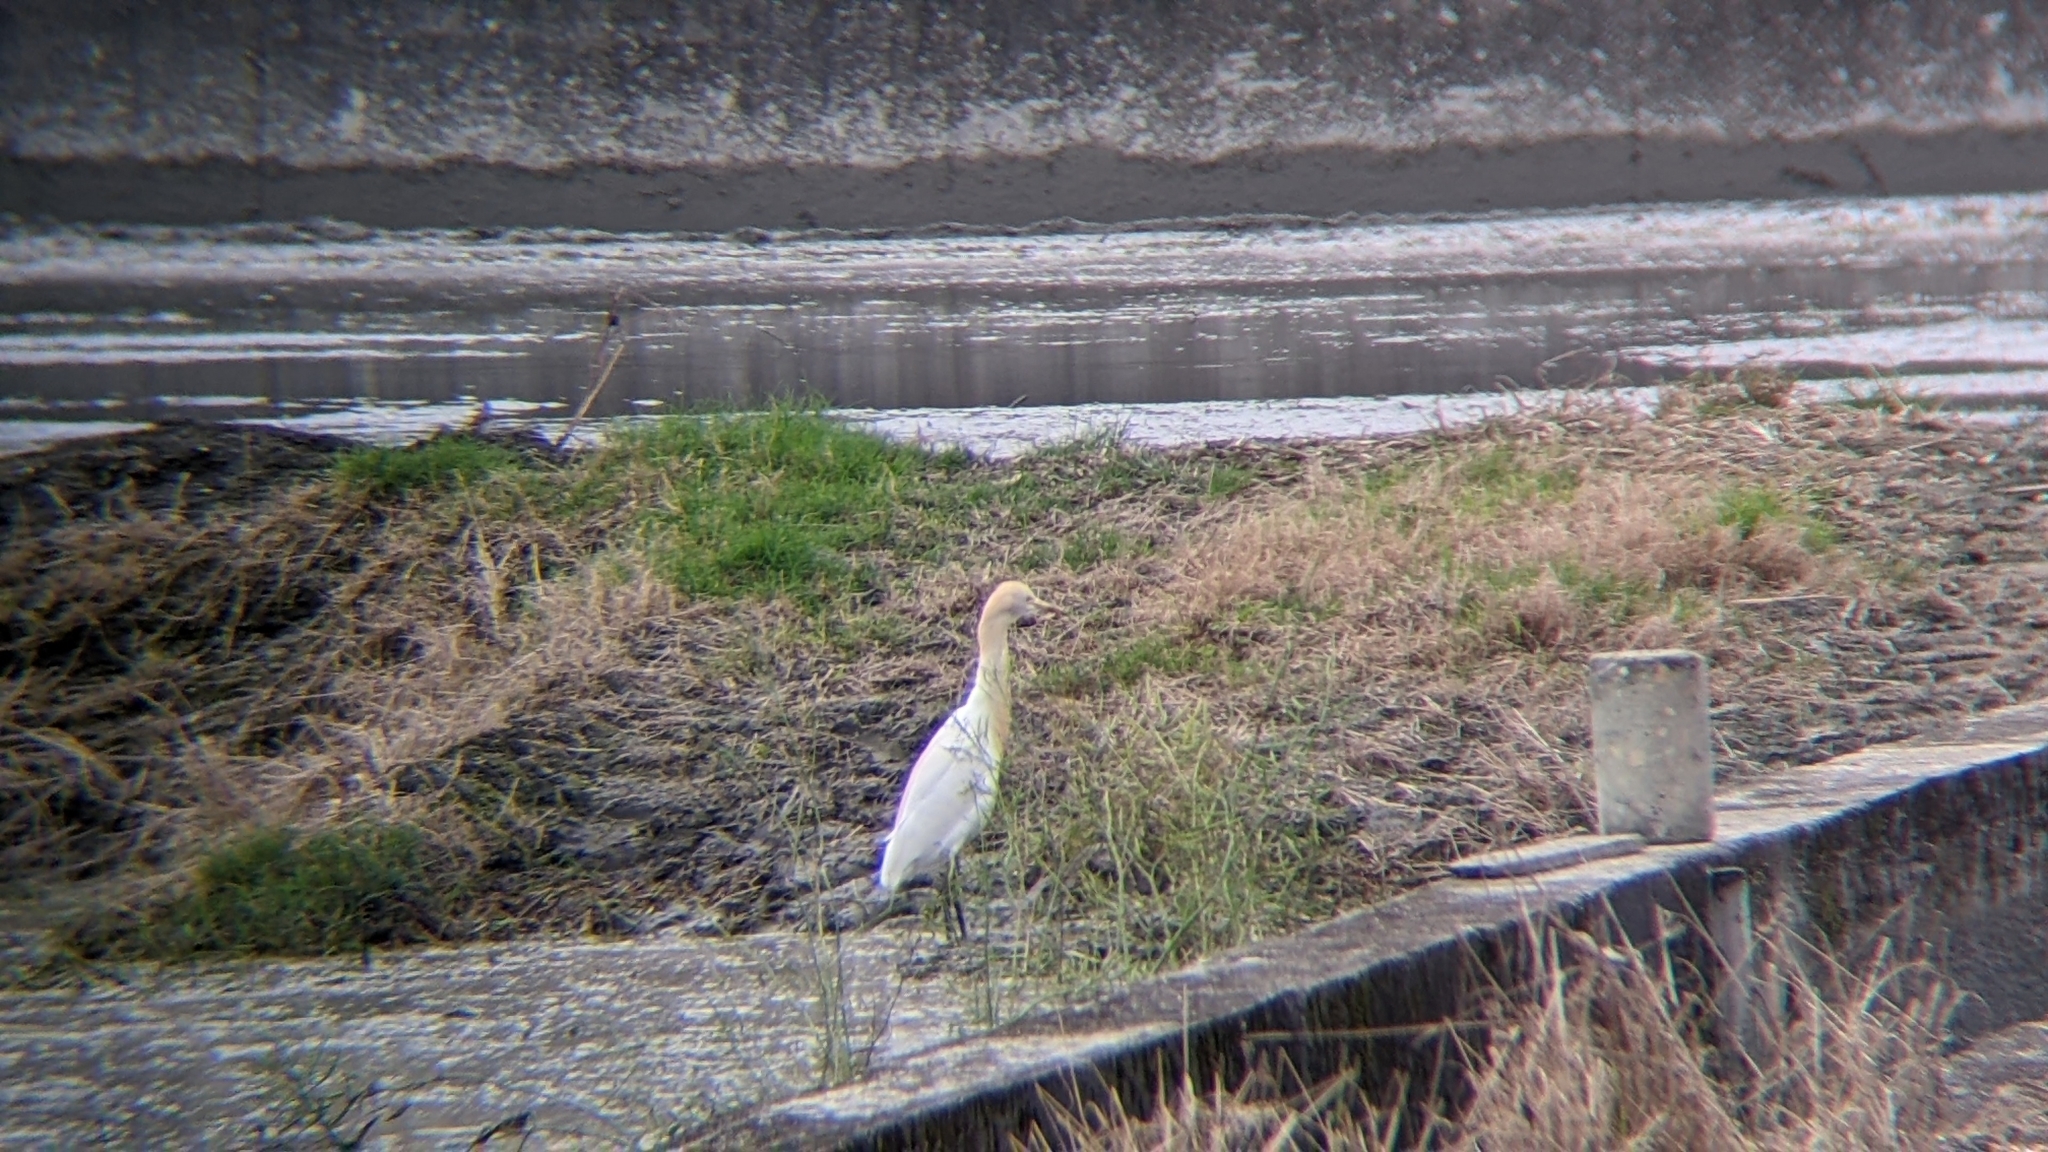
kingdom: Animalia
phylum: Chordata
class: Aves
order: Pelecaniformes
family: Ardeidae
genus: Bubulcus
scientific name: Bubulcus coromandus
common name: Eastern cattle egret
